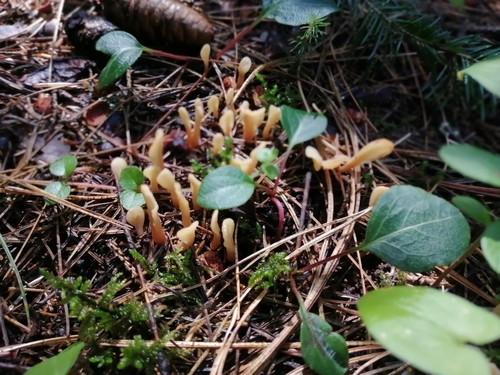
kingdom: Fungi
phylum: Ascomycota
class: Leotiomycetes
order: Rhytismatales
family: Cudoniaceae
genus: Spathularia
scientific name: Spathularia
